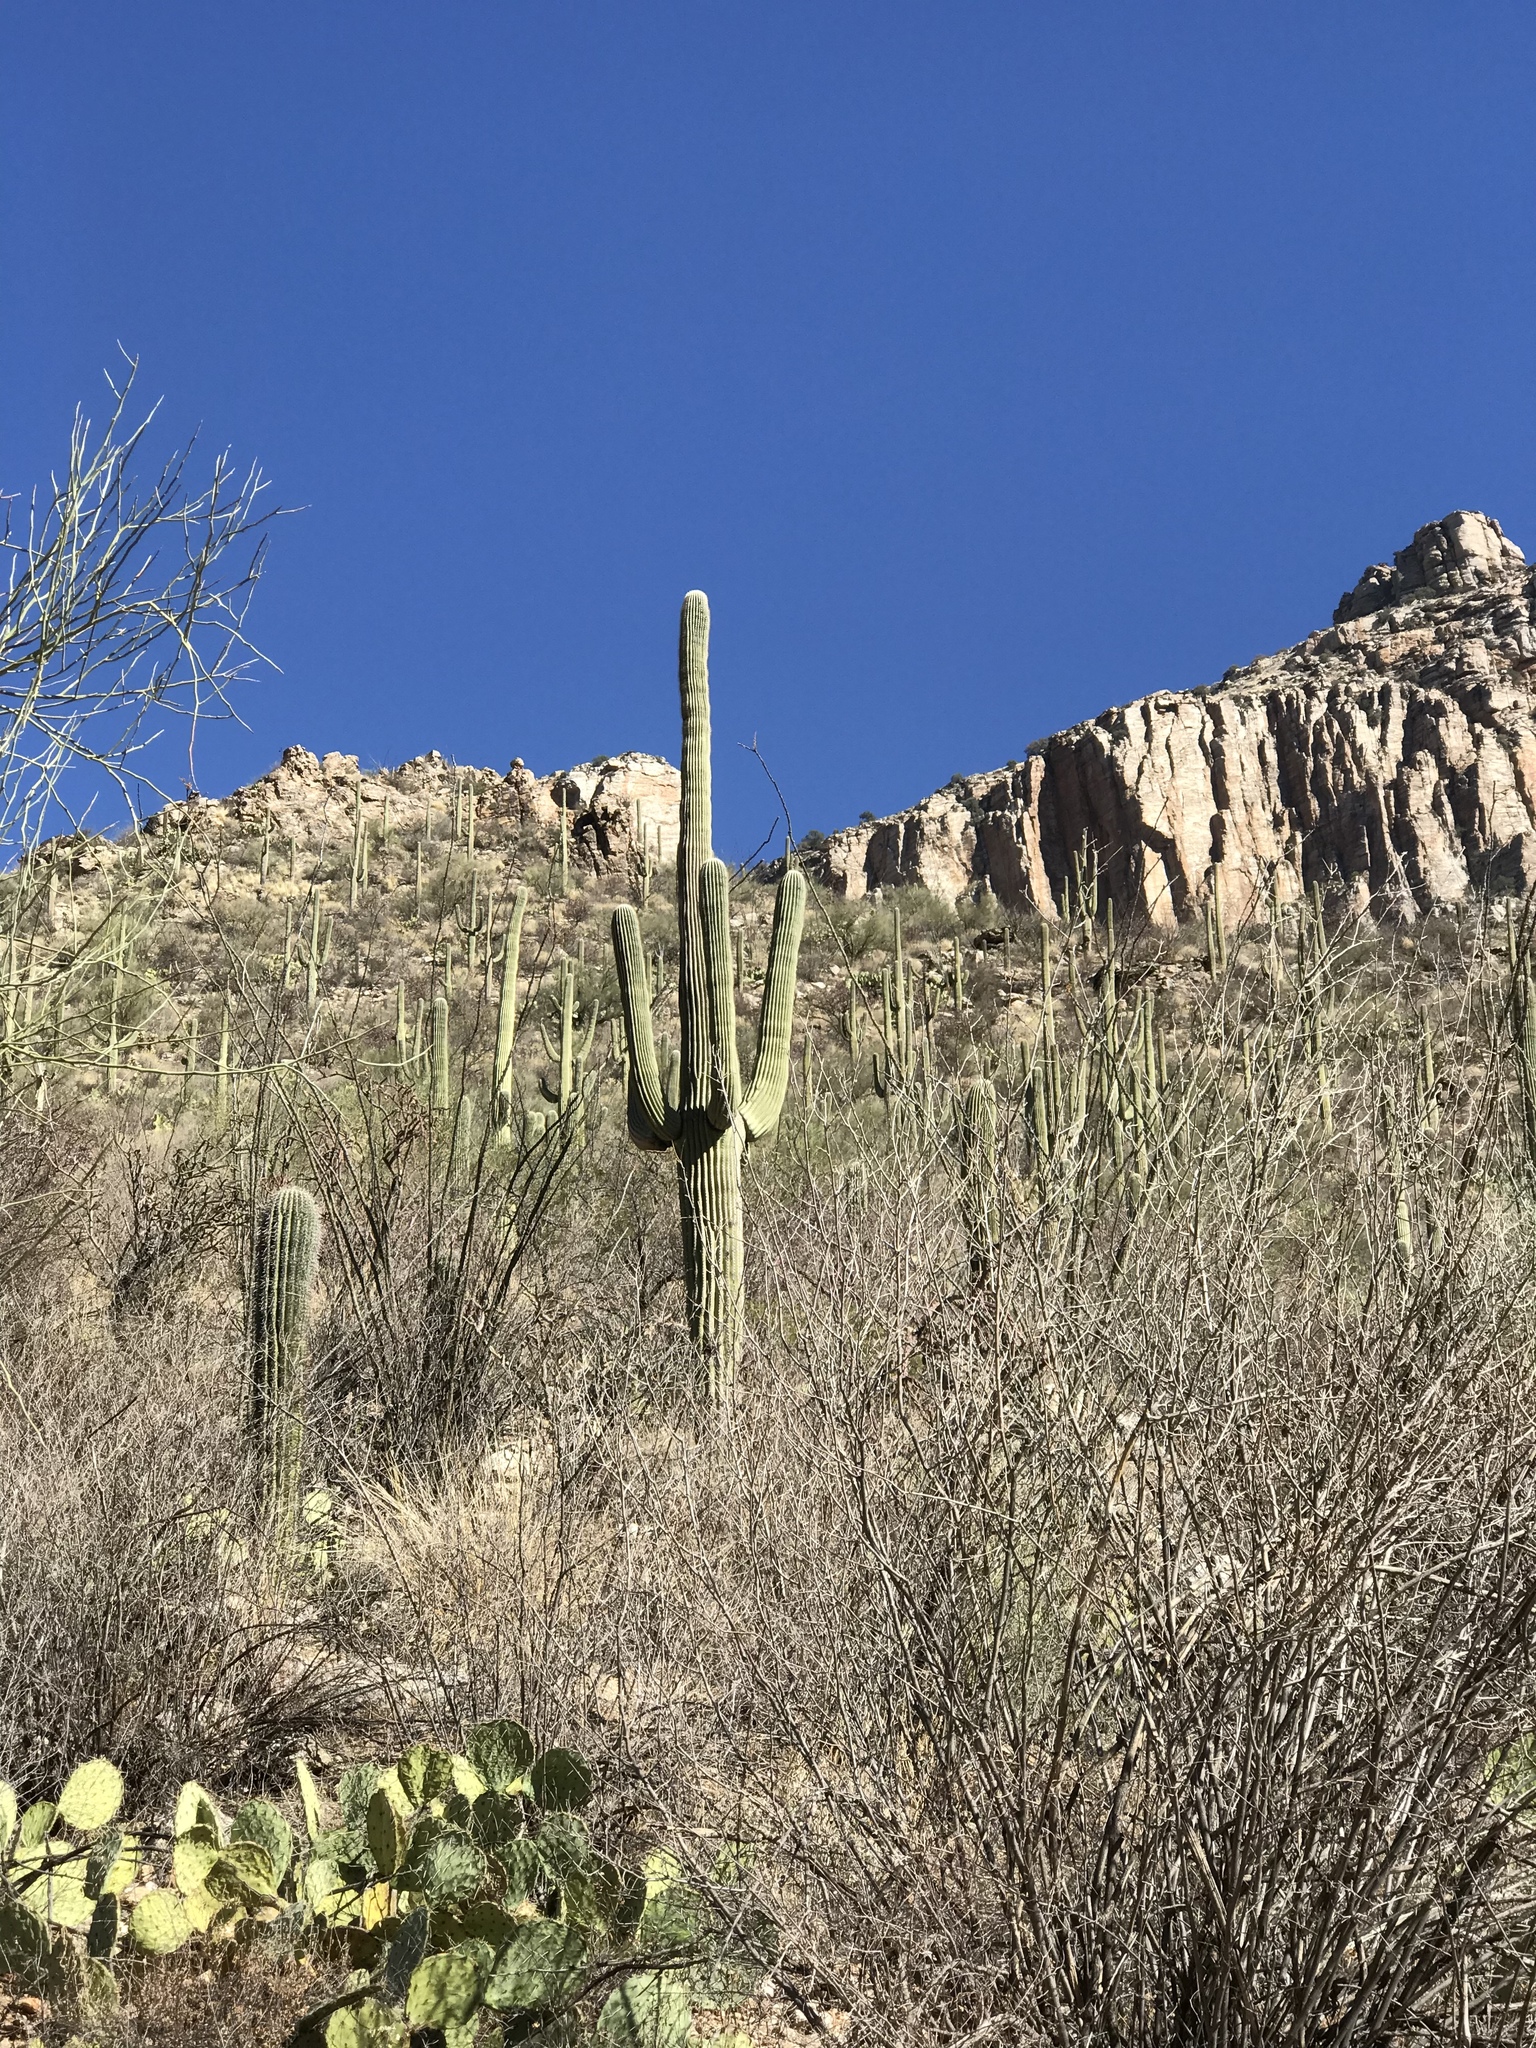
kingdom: Plantae
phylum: Tracheophyta
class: Magnoliopsida
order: Caryophyllales
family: Cactaceae
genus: Carnegiea
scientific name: Carnegiea gigantea
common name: Saguaro
